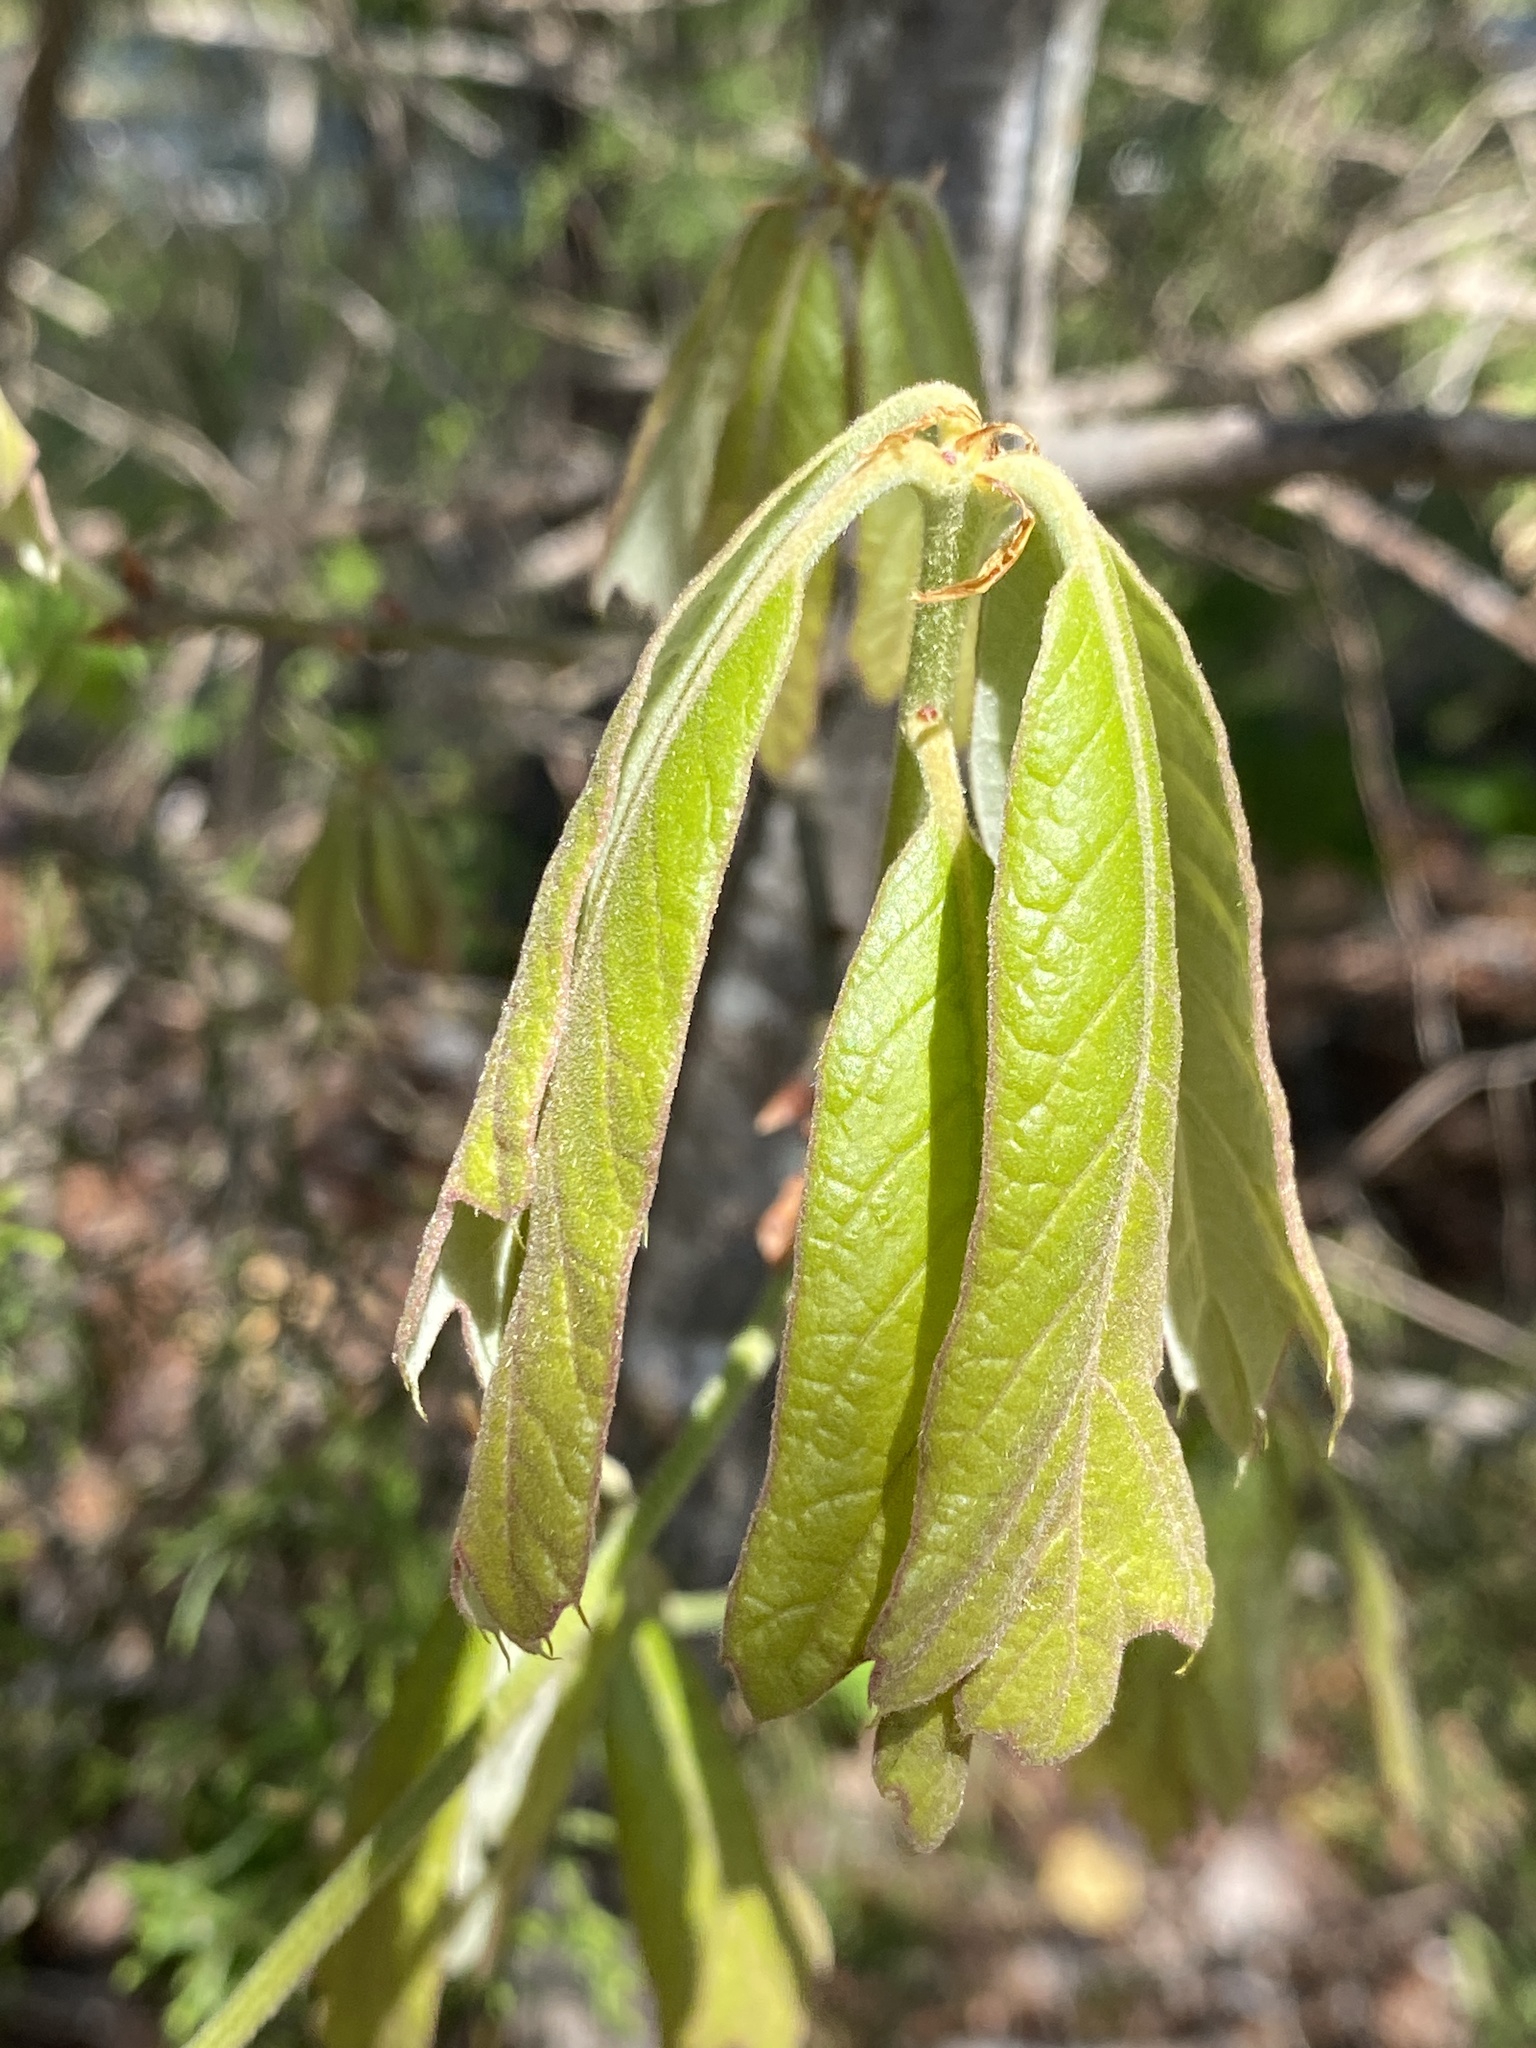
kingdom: Plantae
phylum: Tracheophyta
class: Magnoliopsida
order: Fagales
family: Fagaceae
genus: Quercus
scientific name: Quercus falcata
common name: Southern red oak
